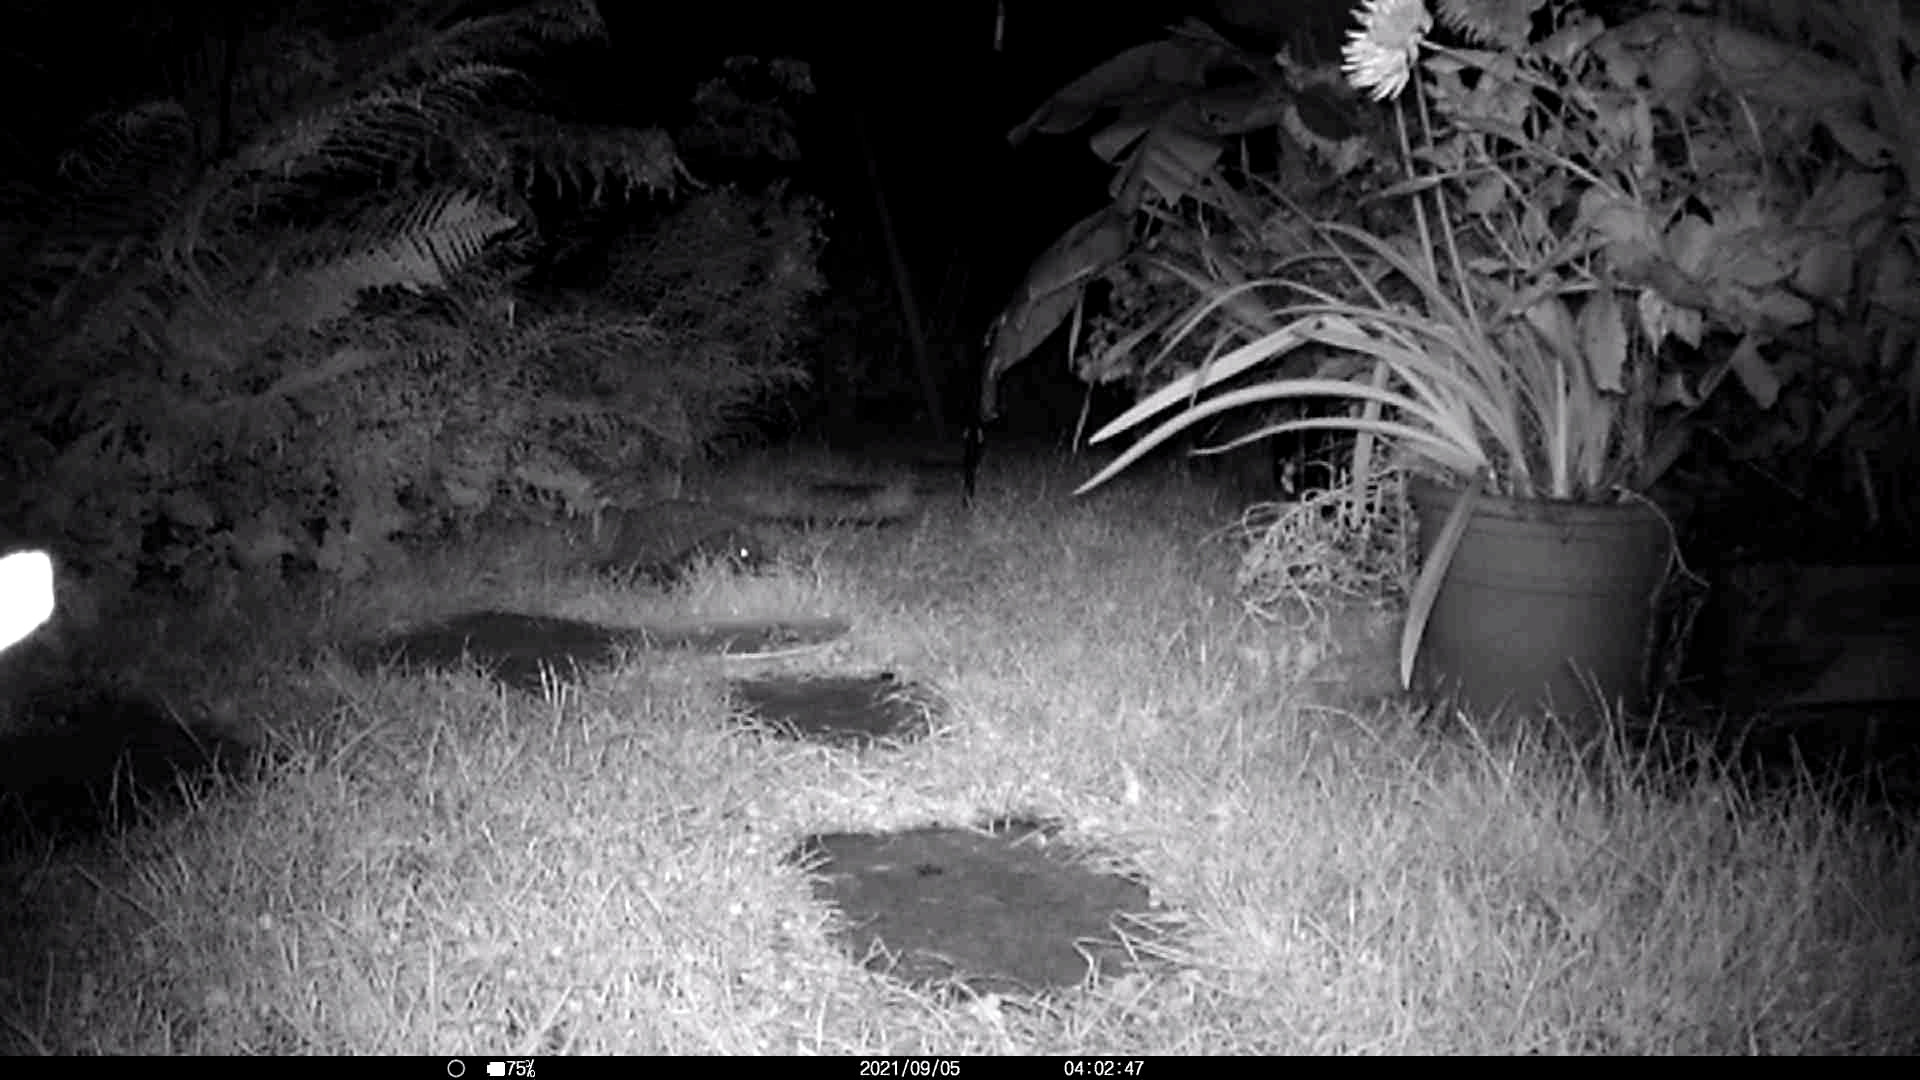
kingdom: Animalia
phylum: Chordata
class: Mammalia
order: Erinaceomorpha
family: Erinaceidae
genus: Erinaceus
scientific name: Erinaceus europaeus
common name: West european hedgehog
